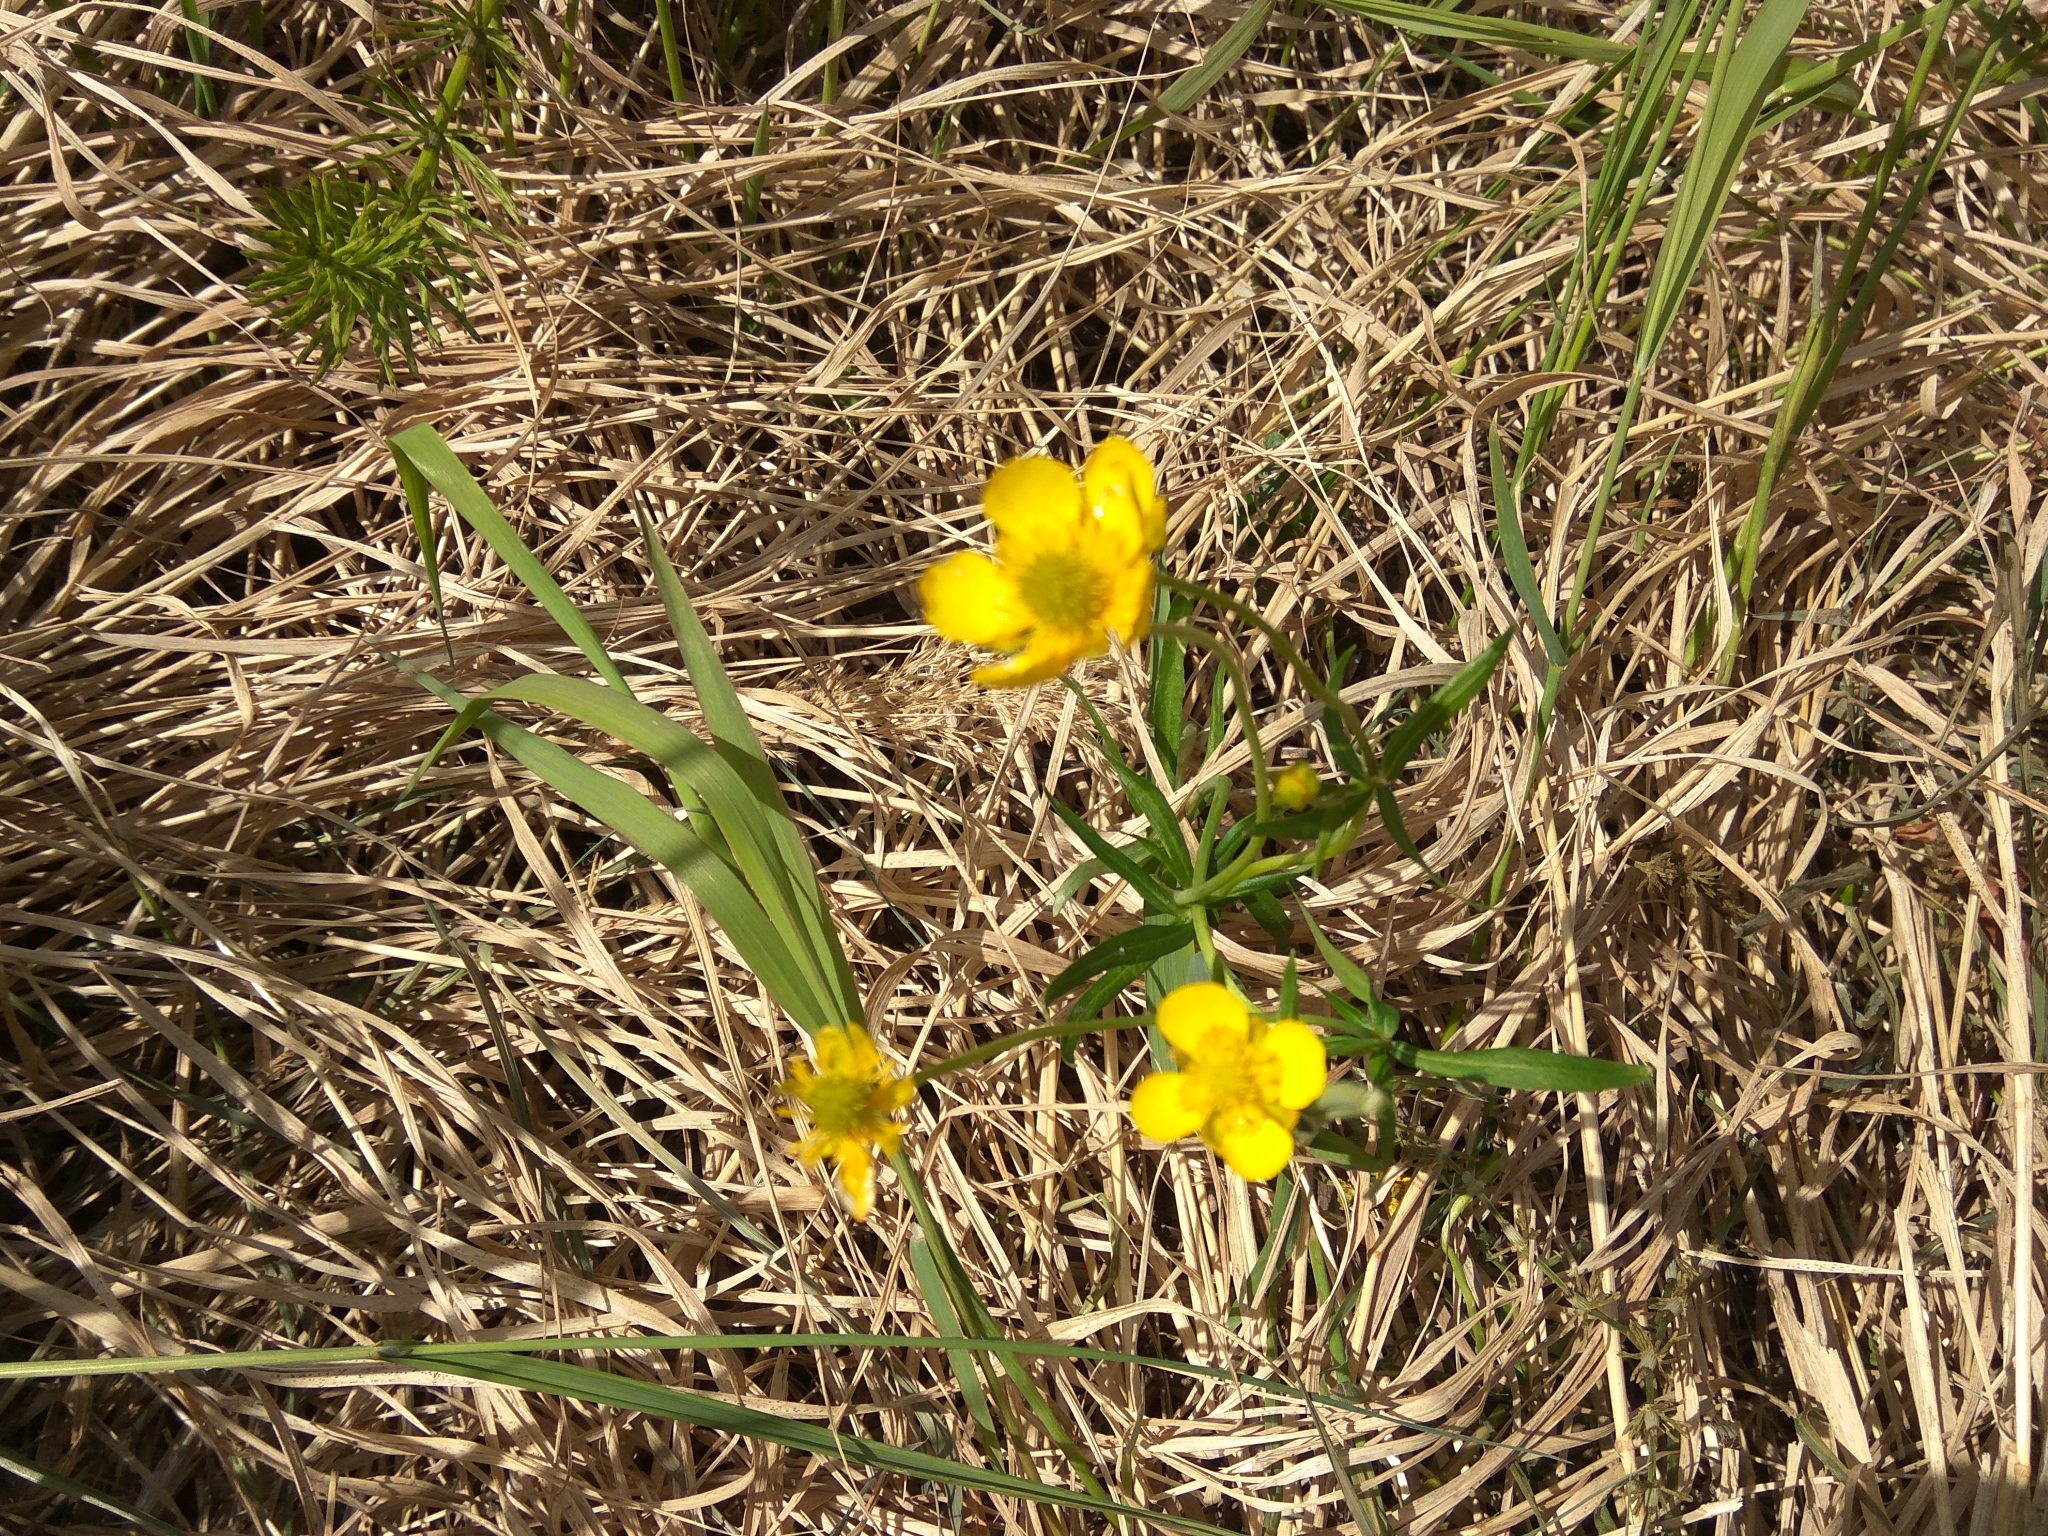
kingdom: Plantae
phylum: Tracheophyta
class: Magnoliopsida
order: Ranunculales
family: Ranunculaceae
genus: Ranunculus
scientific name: Ranunculus monophyllus
